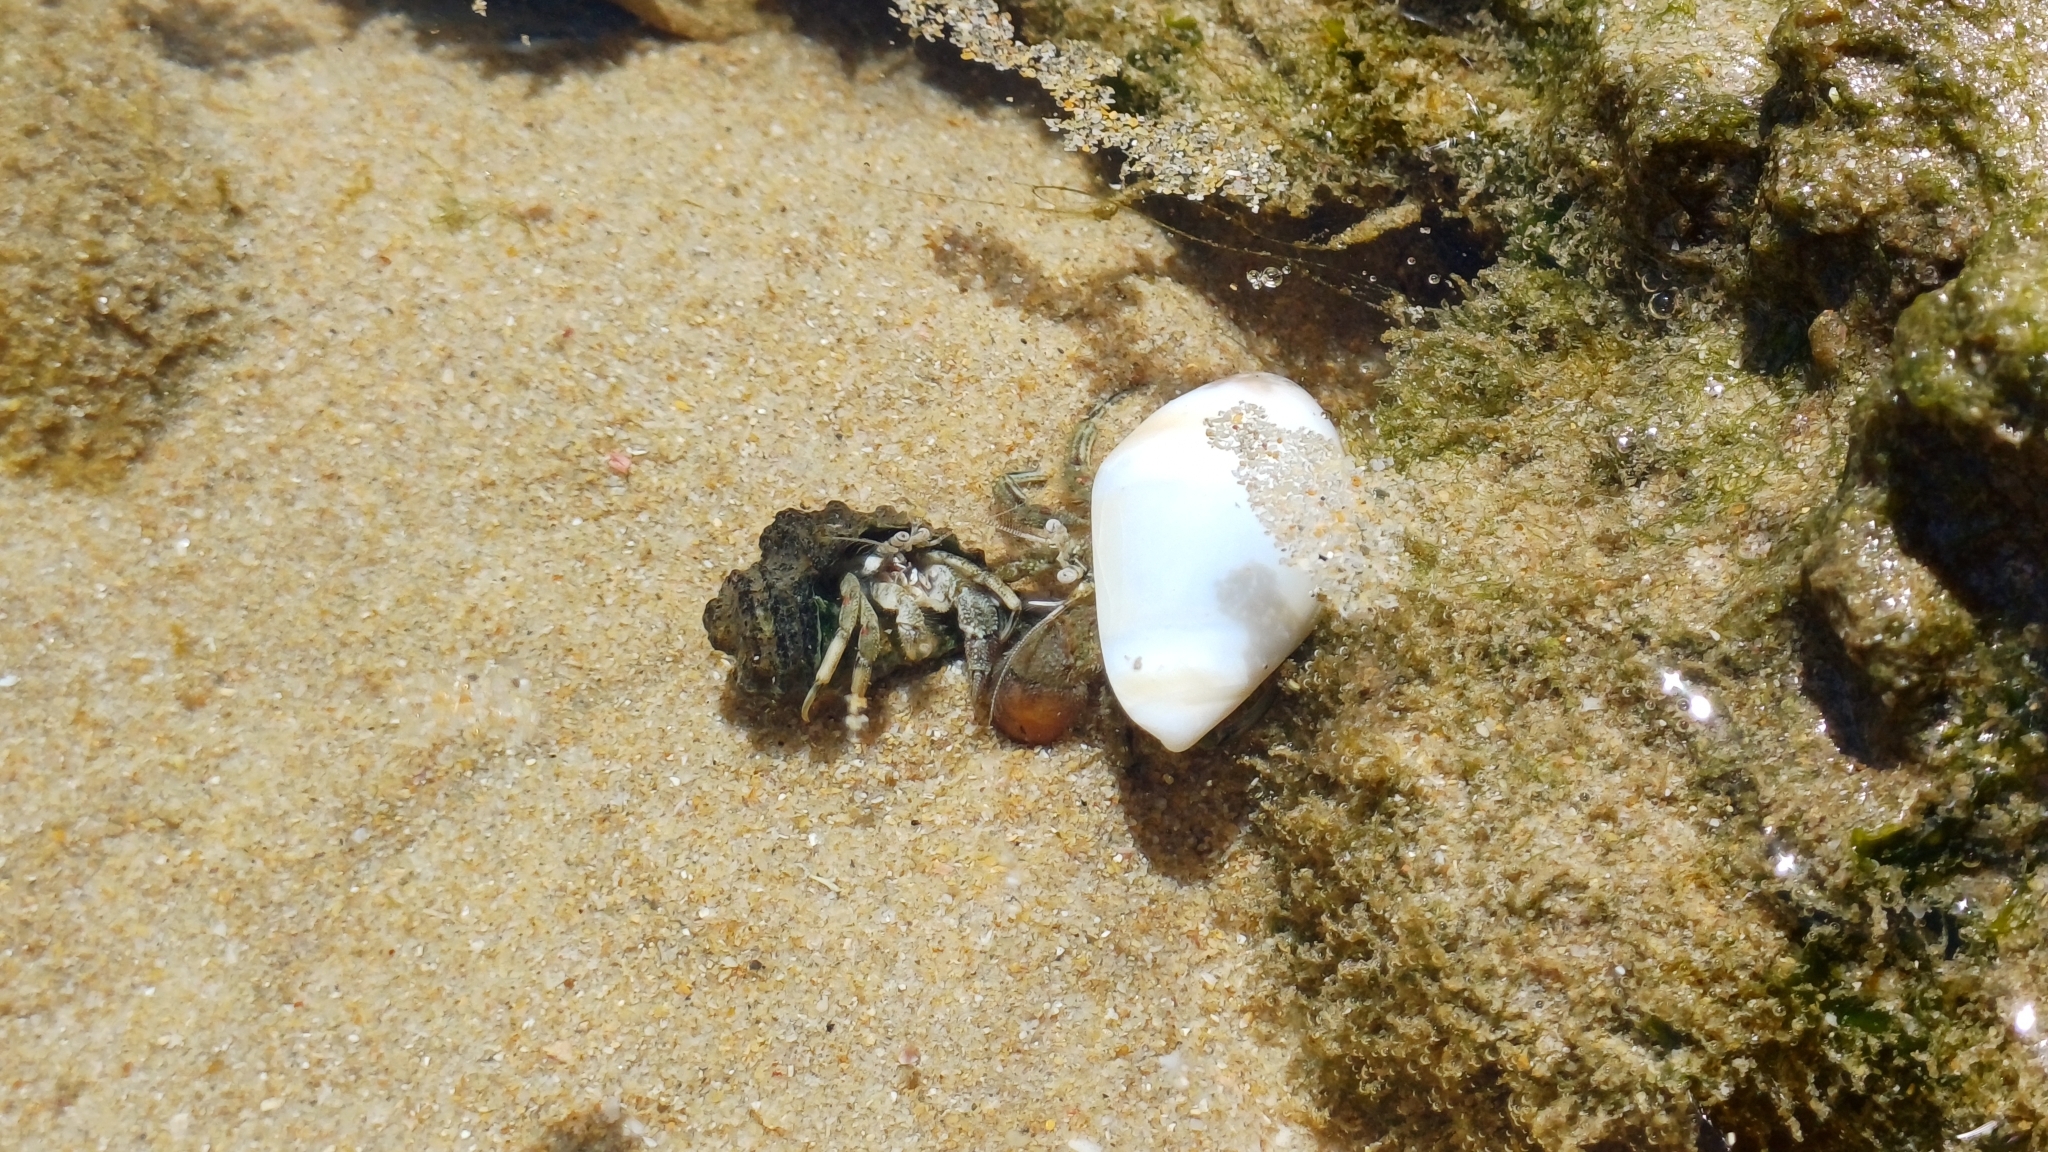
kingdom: Animalia
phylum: Arthropoda
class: Malacostraca
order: Decapoda
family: Diogenidae
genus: Diogenes
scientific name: Diogenes brevirostris
